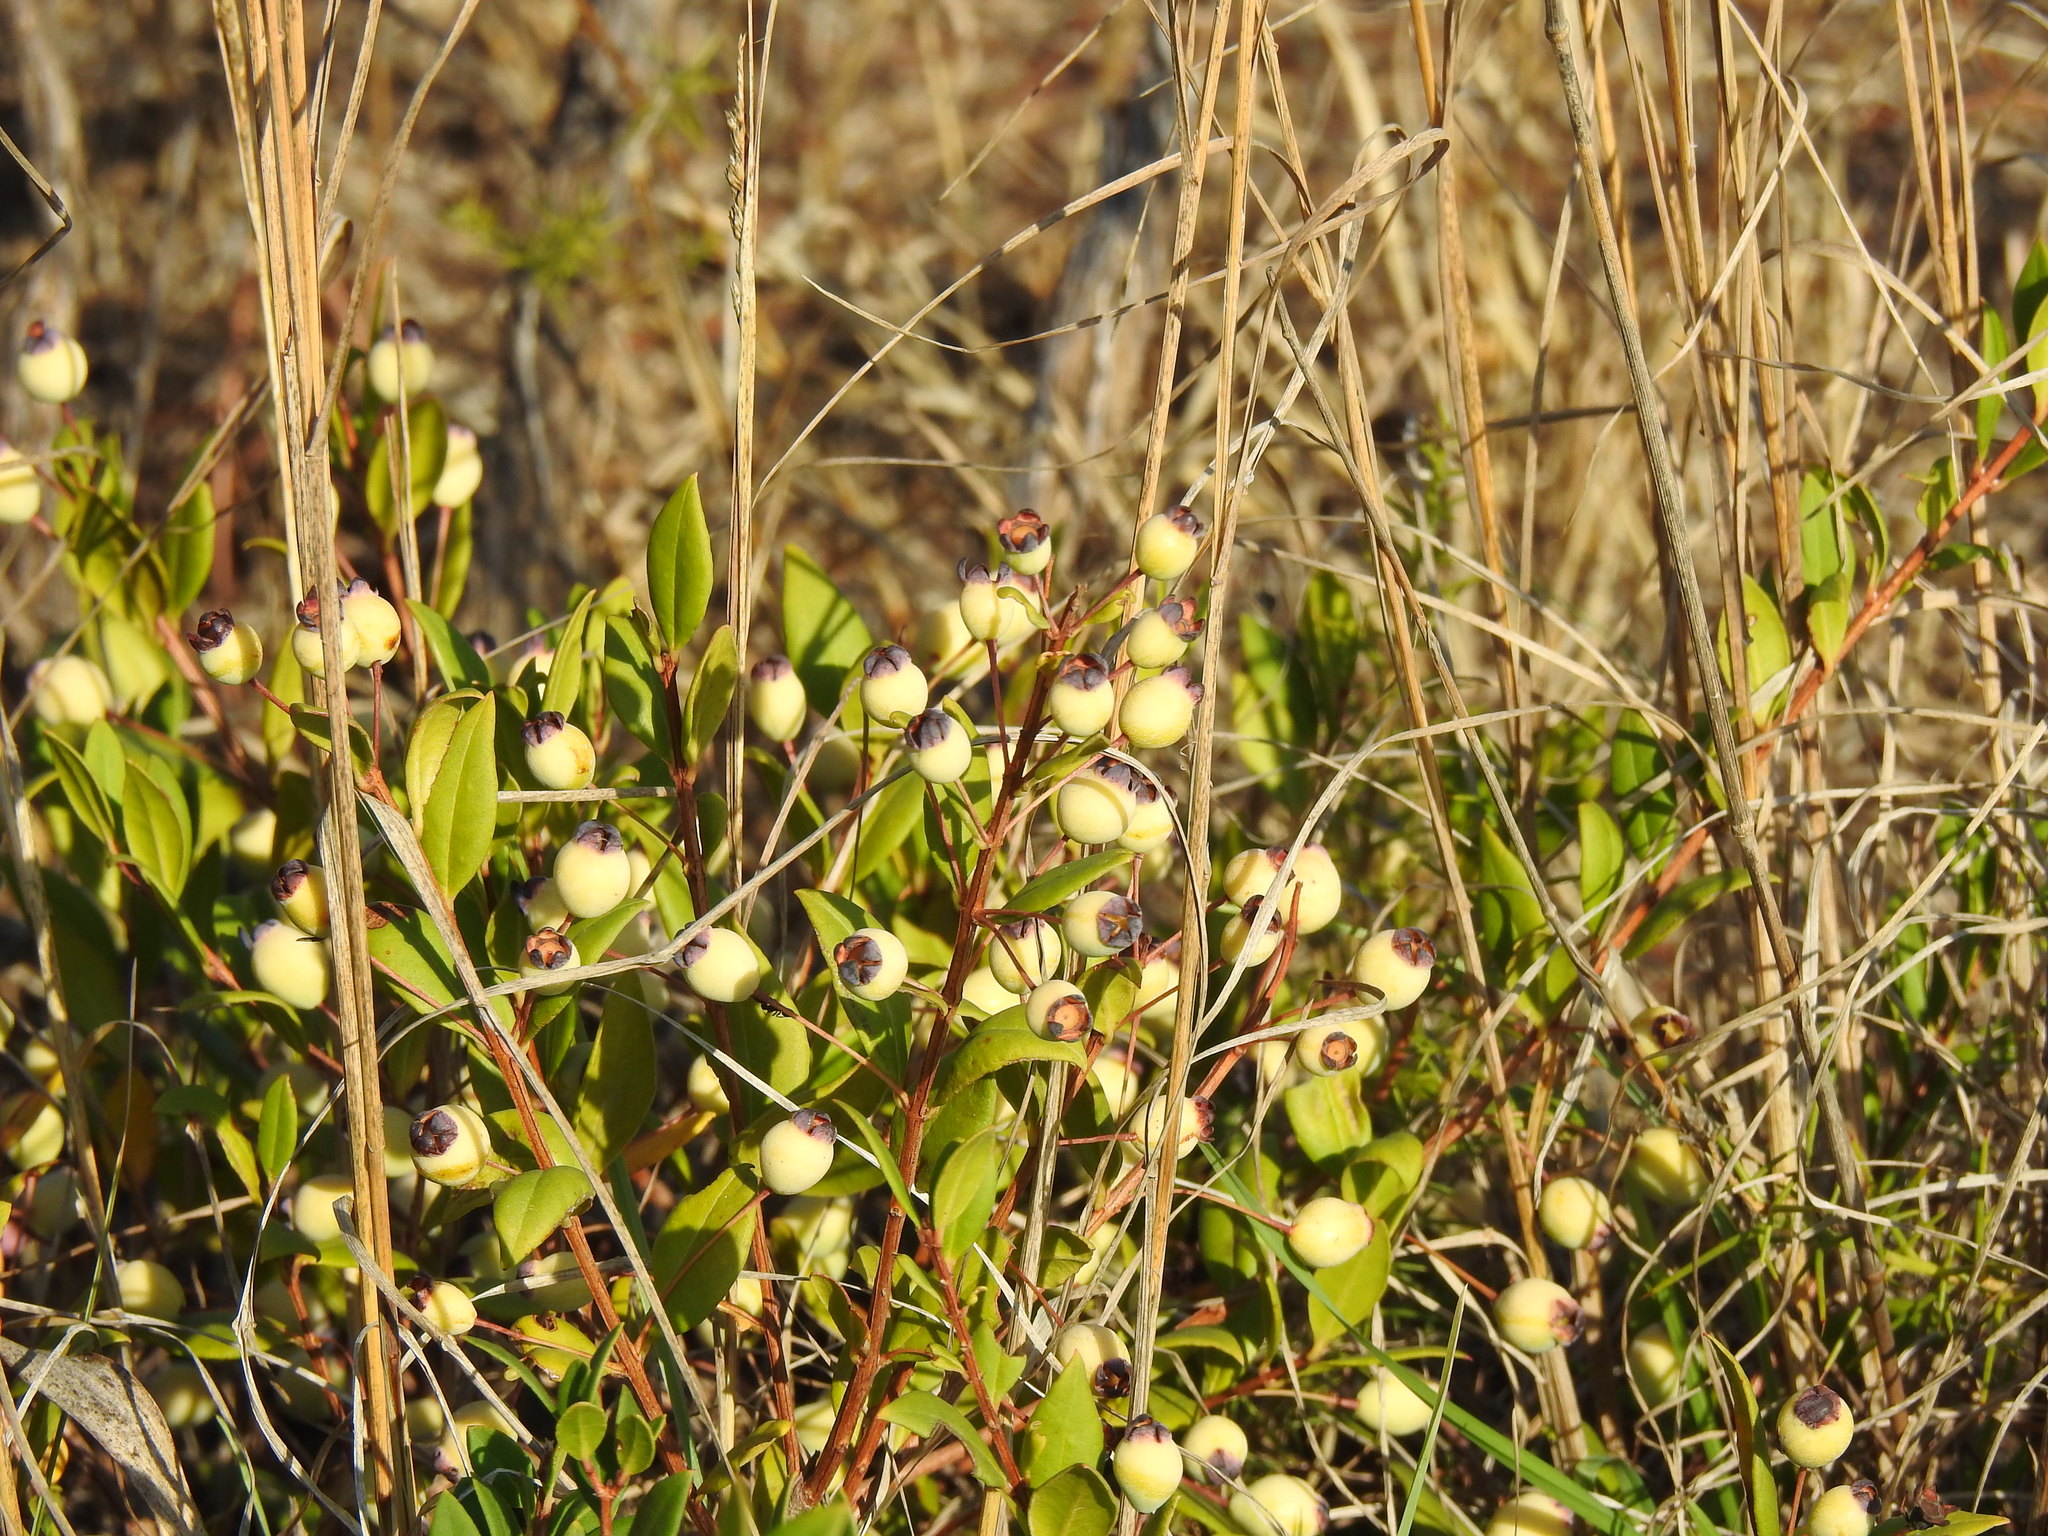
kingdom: Plantae
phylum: Tracheophyta
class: Magnoliopsida
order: Myrtales
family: Myrtaceae
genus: Myrtus
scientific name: Myrtus communis
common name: Myrtle
